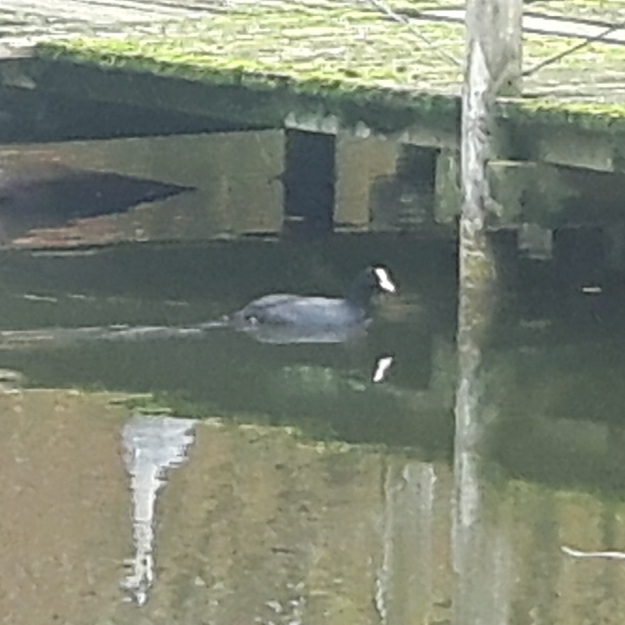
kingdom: Animalia
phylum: Chordata
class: Aves
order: Gruiformes
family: Rallidae
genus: Fulica
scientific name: Fulica atra
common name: Eurasian coot
